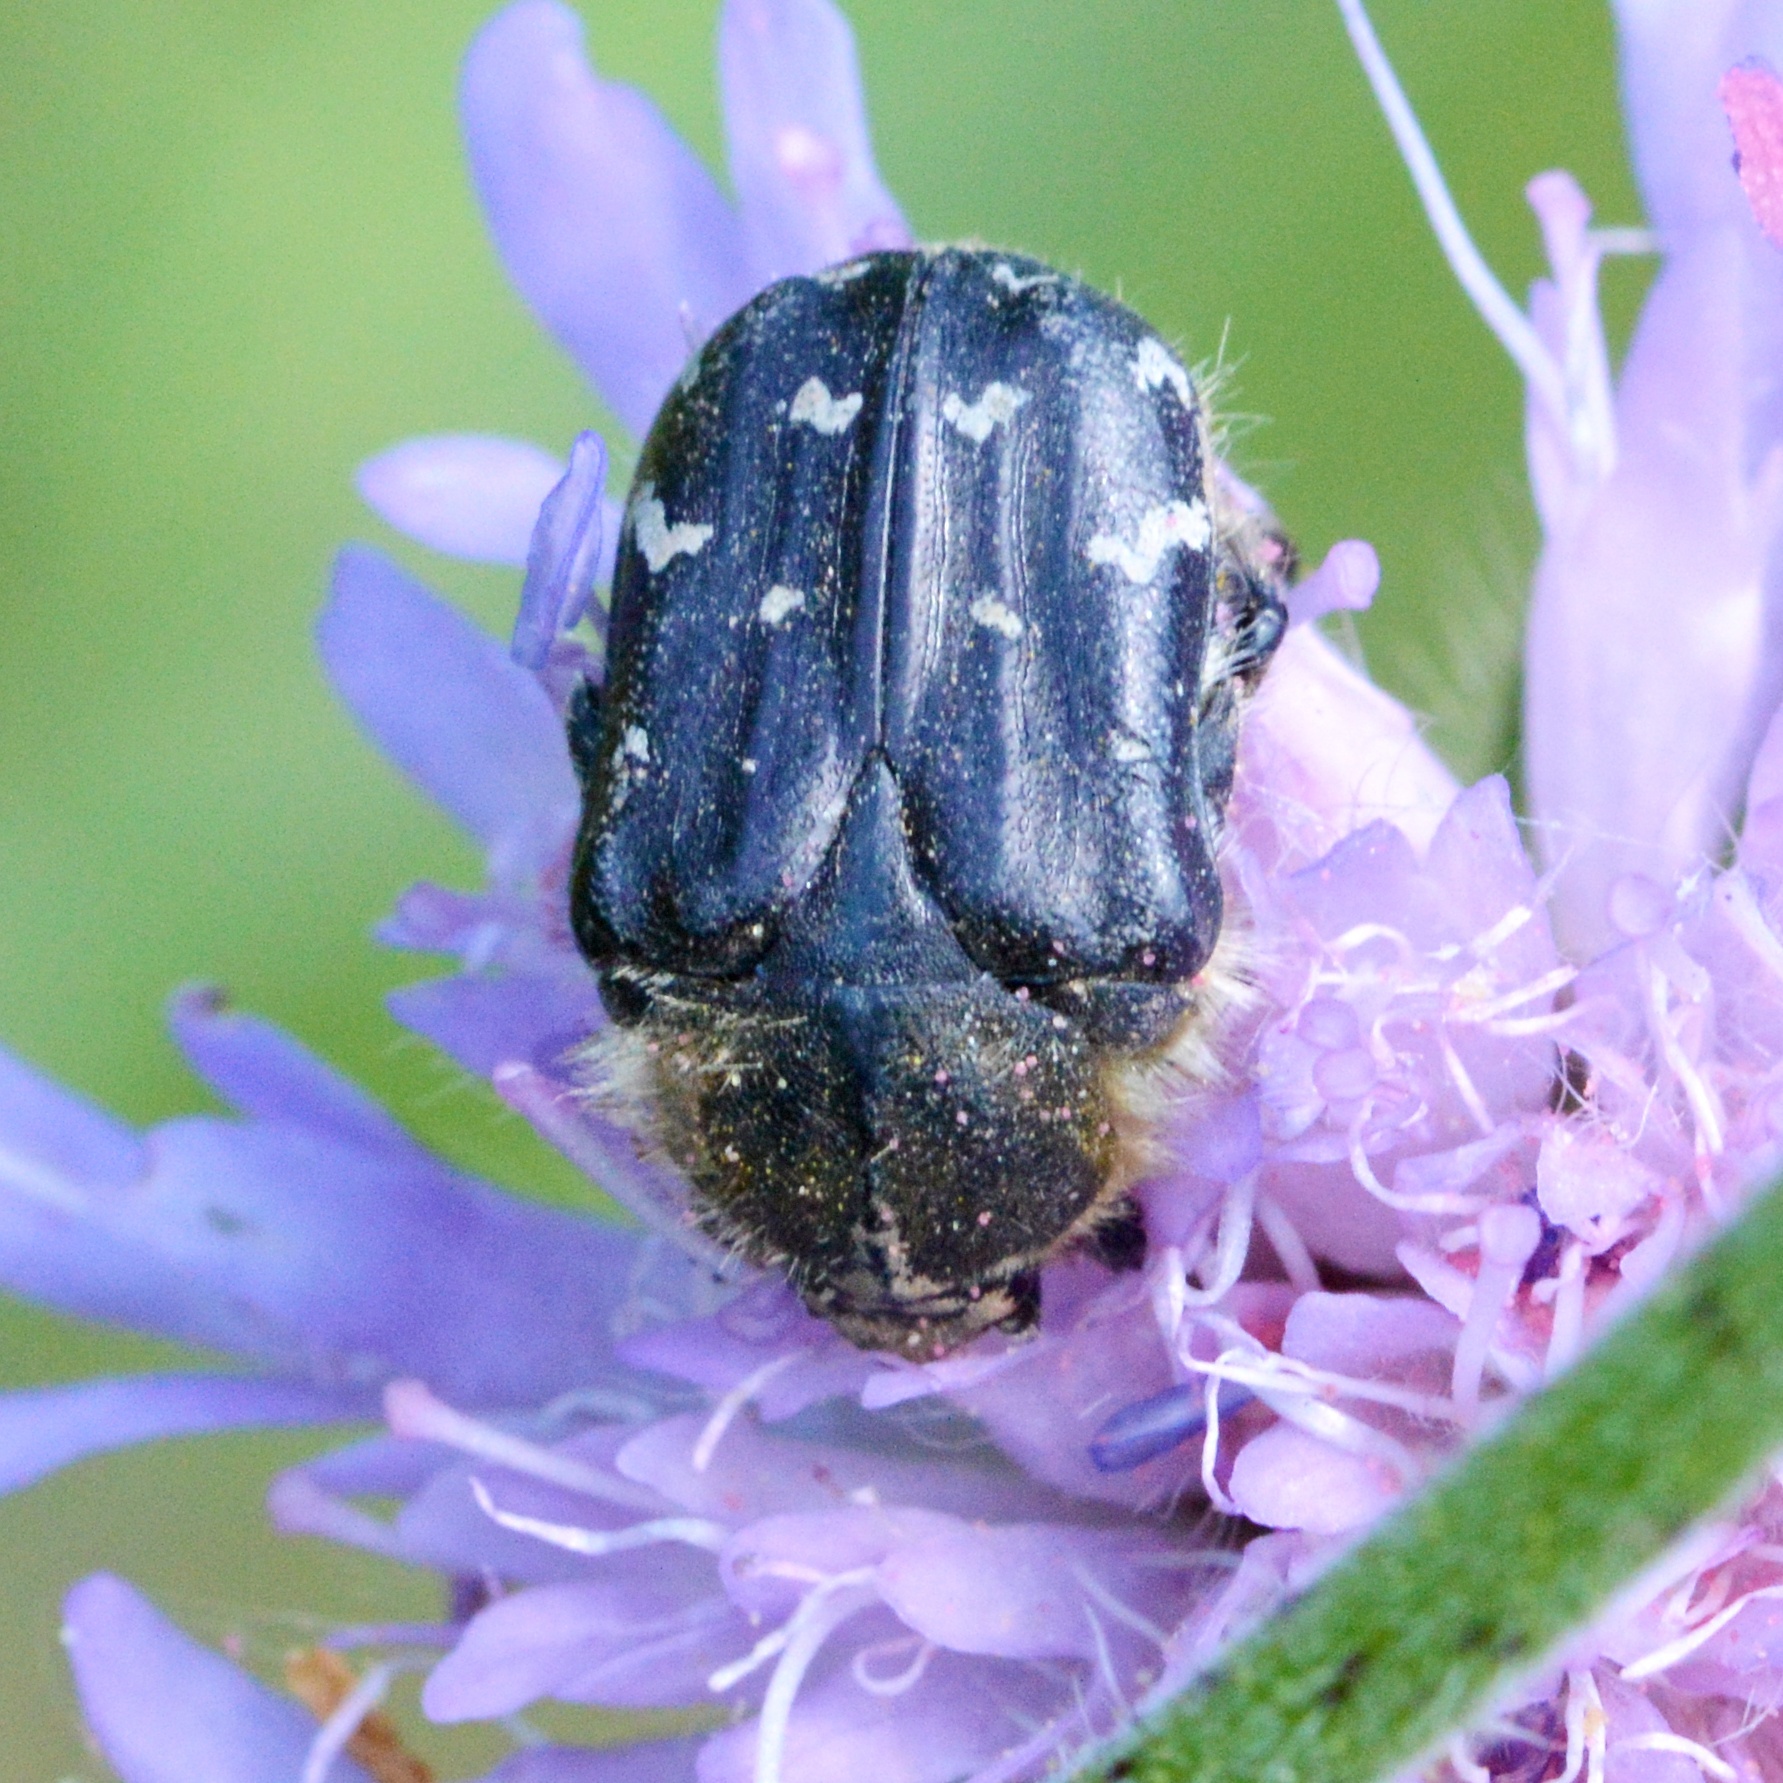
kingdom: Animalia
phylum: Arthropoda
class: Insecta
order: Coleoptera
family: Scarabaeidae
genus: Tropinota
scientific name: Tropinota hirta
